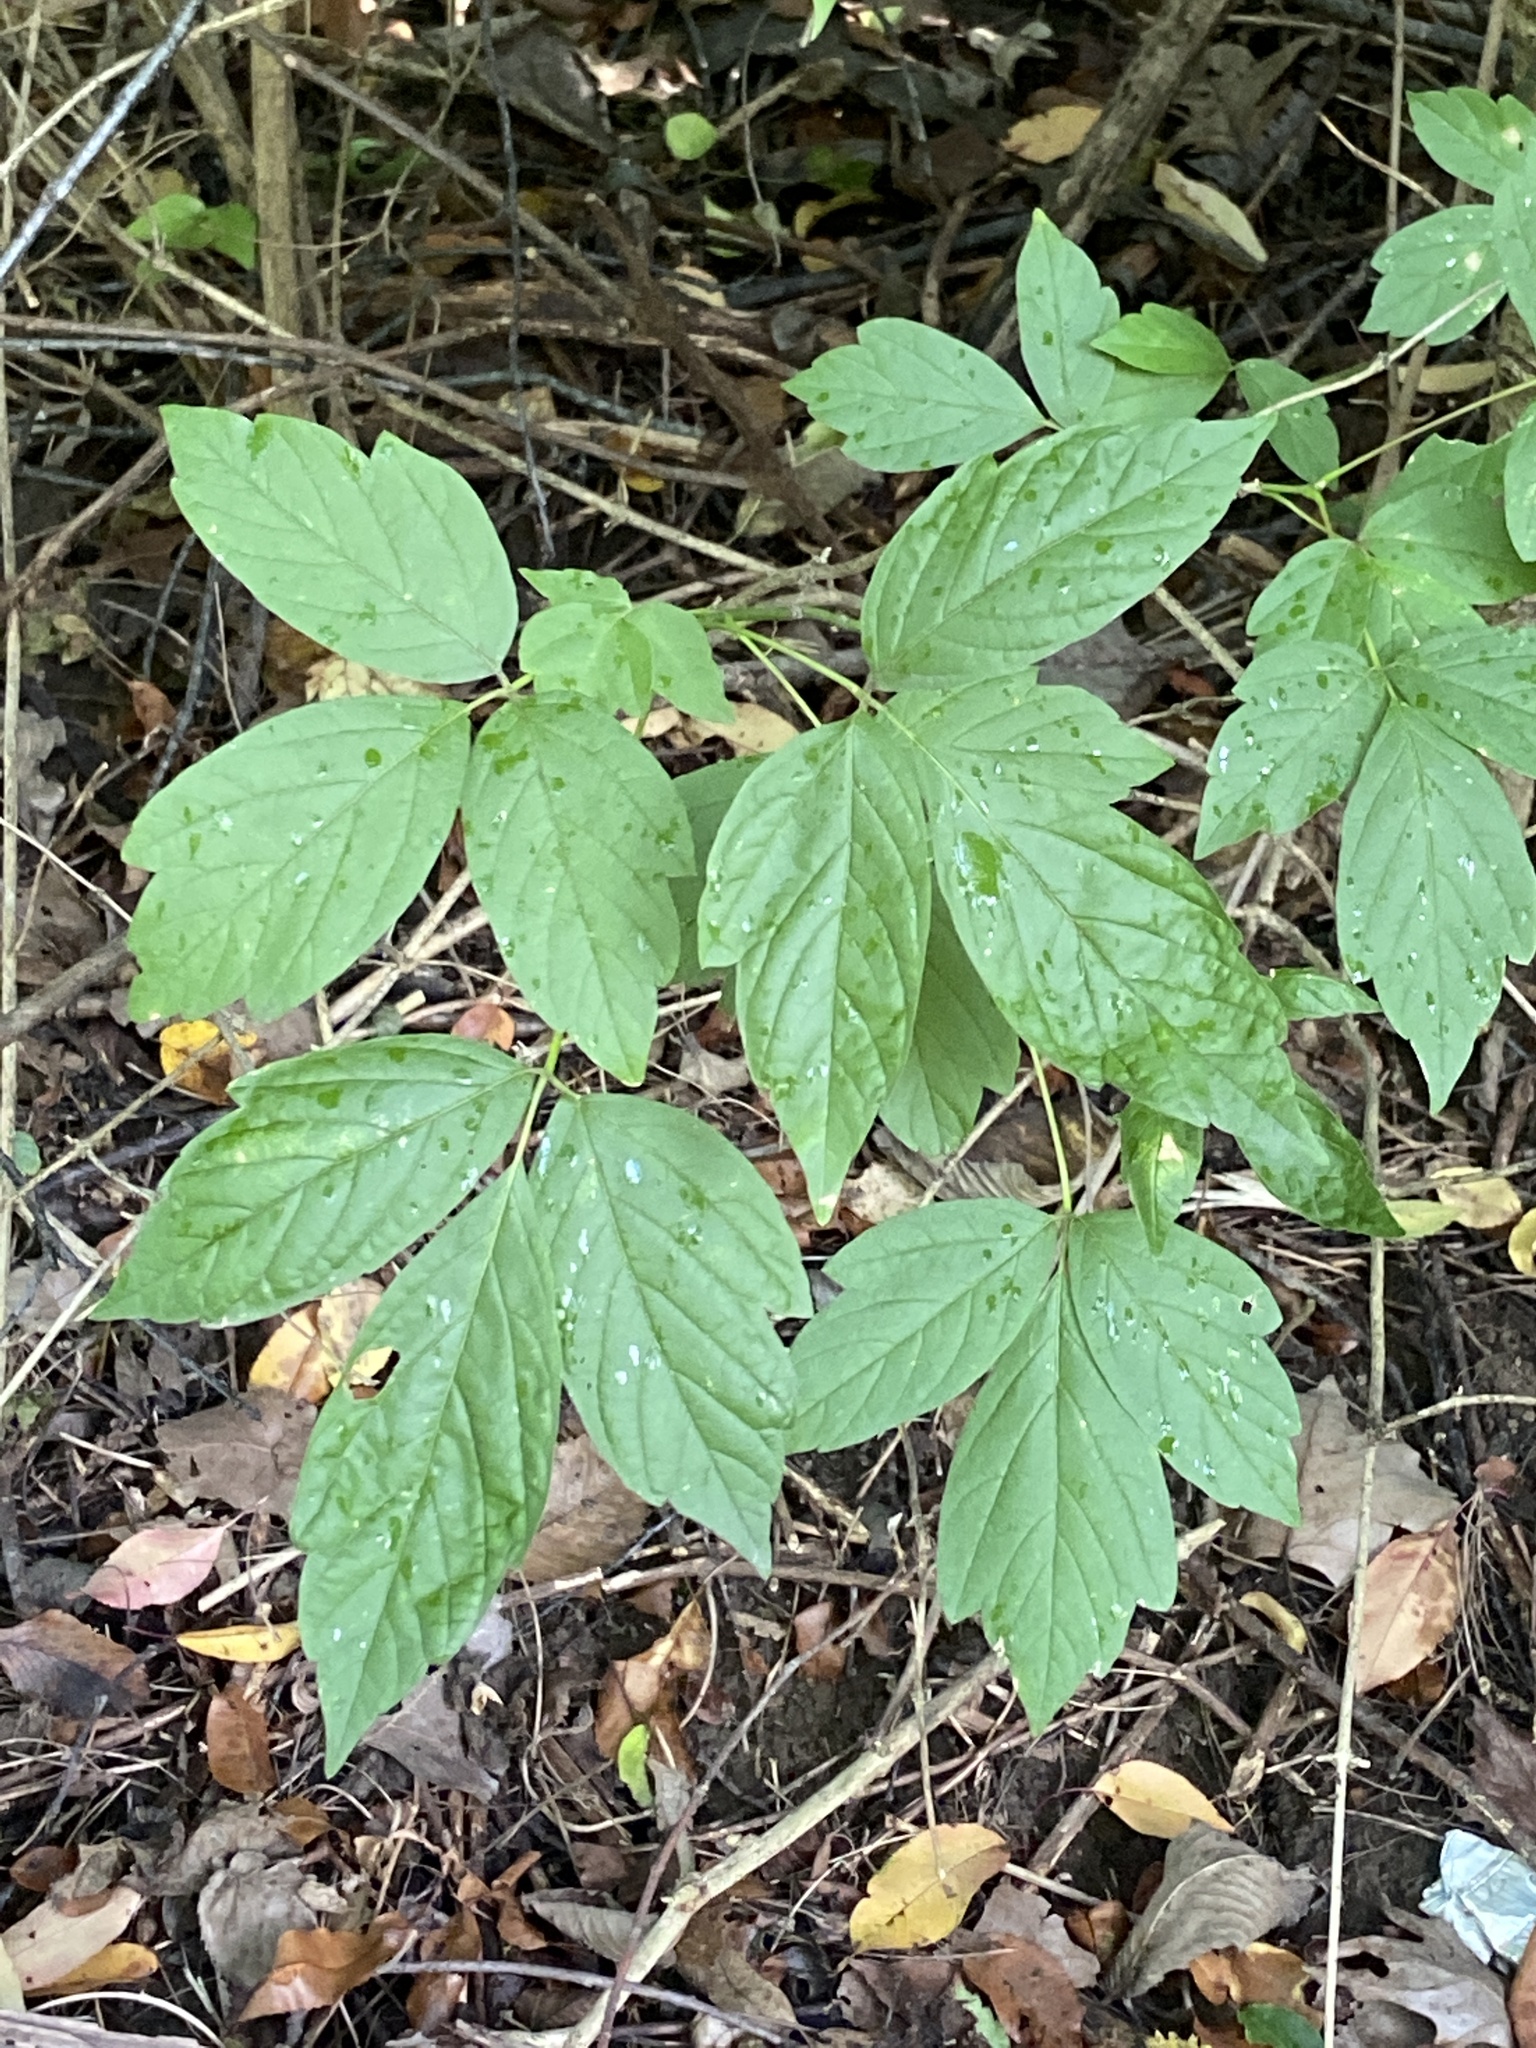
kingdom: Plantae
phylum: Tracheophyta
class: Magnoliopsida
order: Sapindales
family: Sapindaceae
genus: Acer
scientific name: Acer negundo
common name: Ashleaf maple
